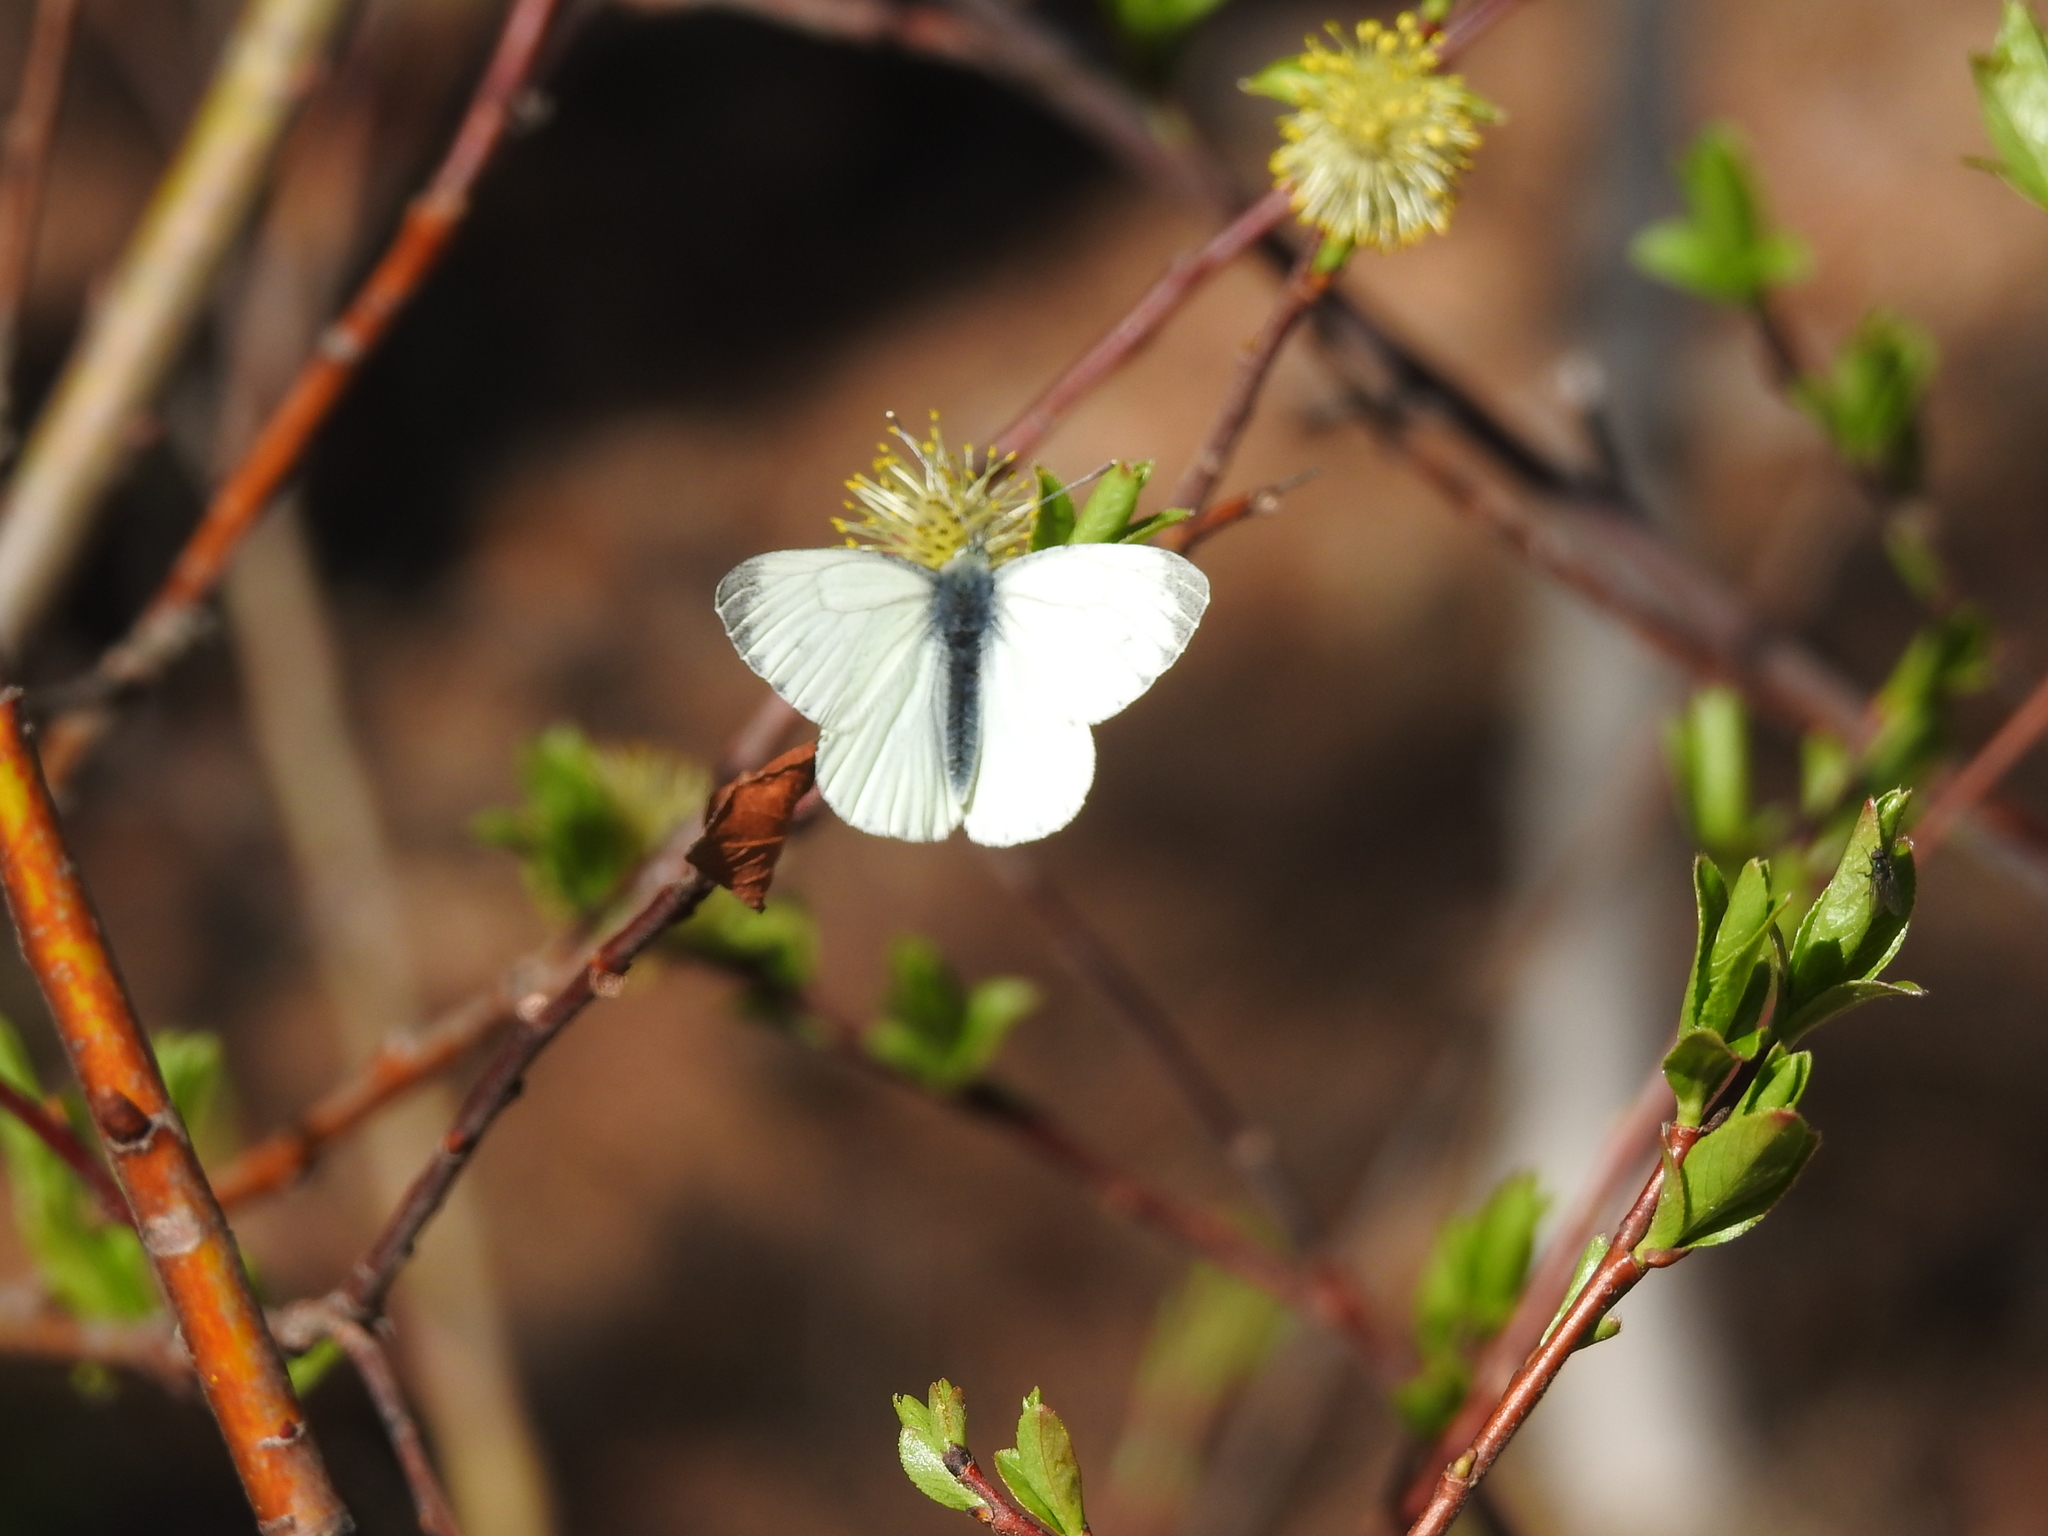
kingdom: Animalia
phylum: Arthropoda
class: Insecta
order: Lepidoptera
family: Pieridae
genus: Pieris
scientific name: Pieris napi
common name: Green-veined white
